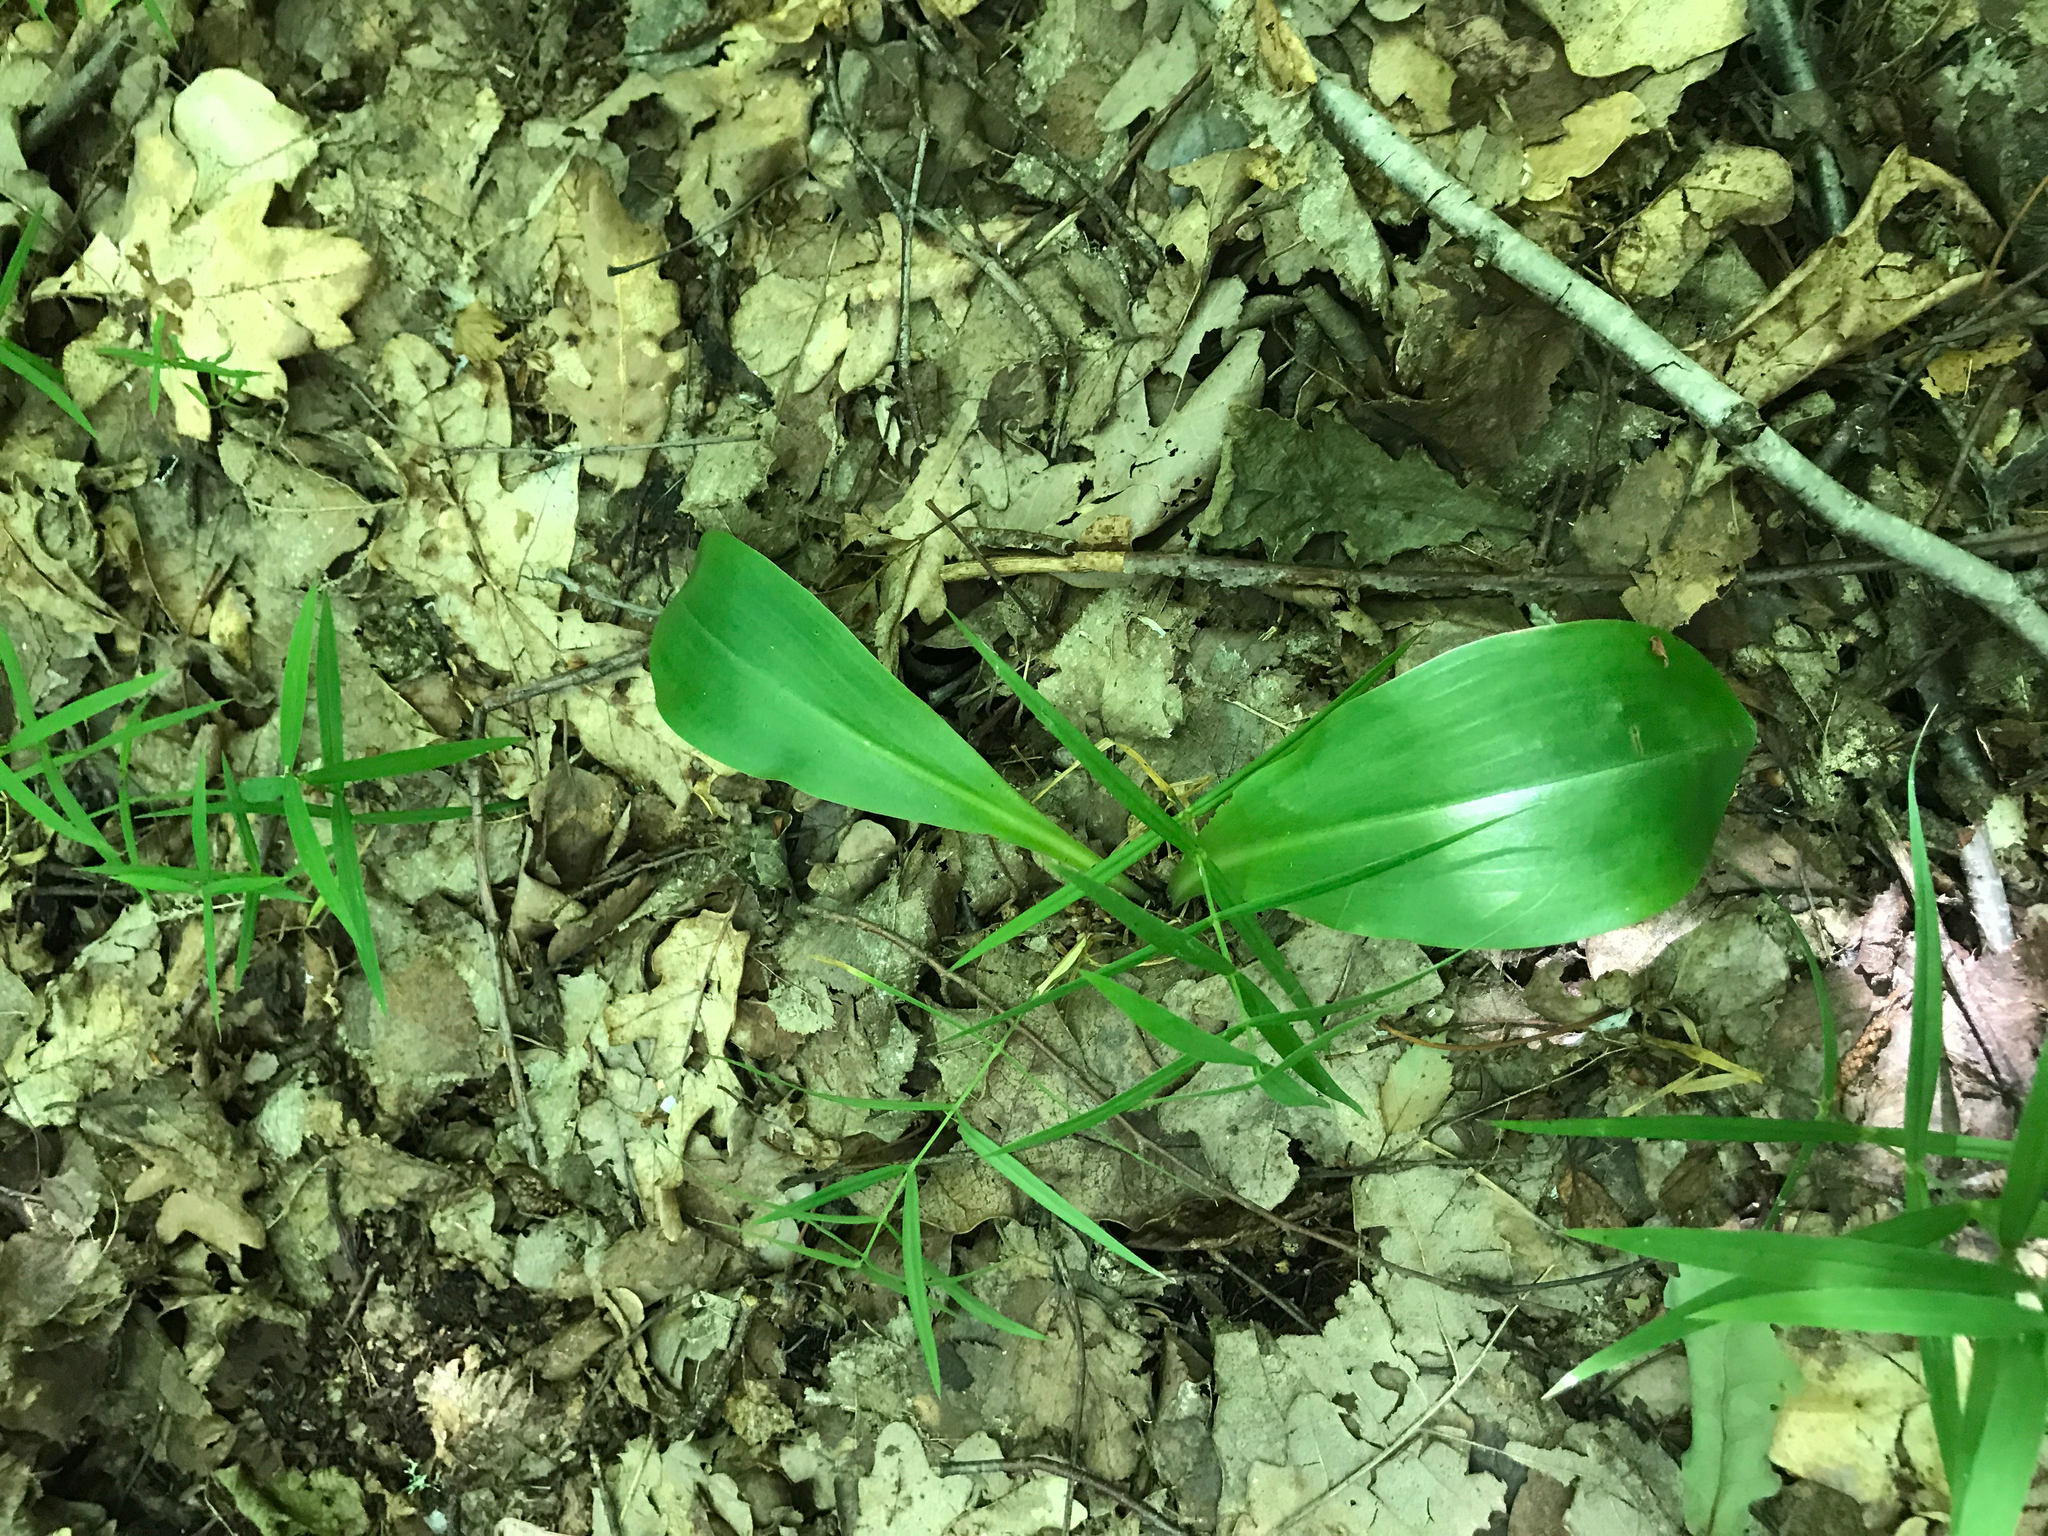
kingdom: Plantae
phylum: Tracheophyta
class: Magnoliopsida
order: Caryophyllales
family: Caryophyllaceae
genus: Rabelera
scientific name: Rabelera holostea
